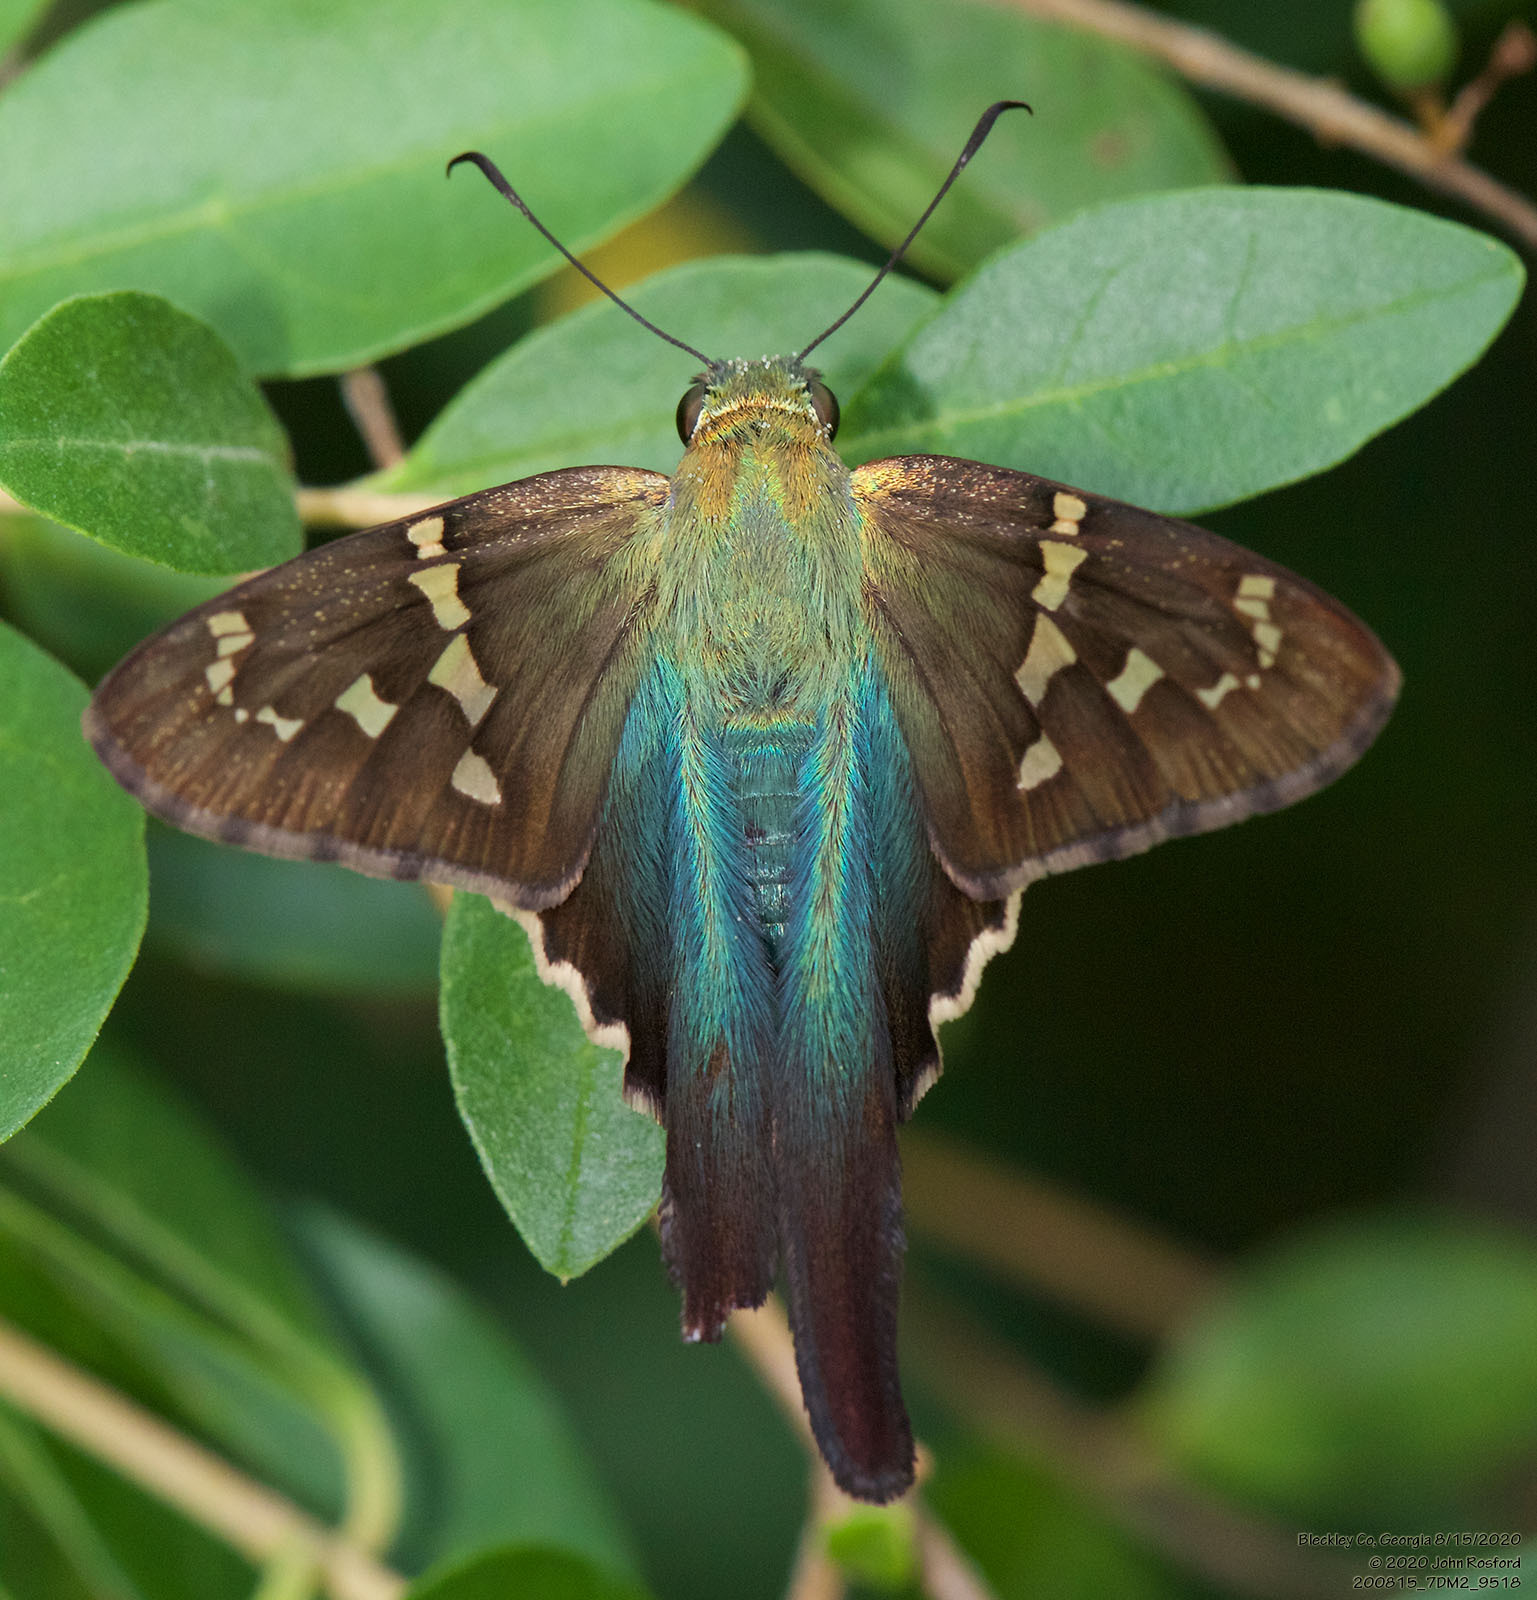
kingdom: Animalia
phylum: Arthropoda
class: Insecta
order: Lepidoptera
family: Hesperiidae
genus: Urbanus
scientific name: Urbanus proteus
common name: Long-tailed skipper
